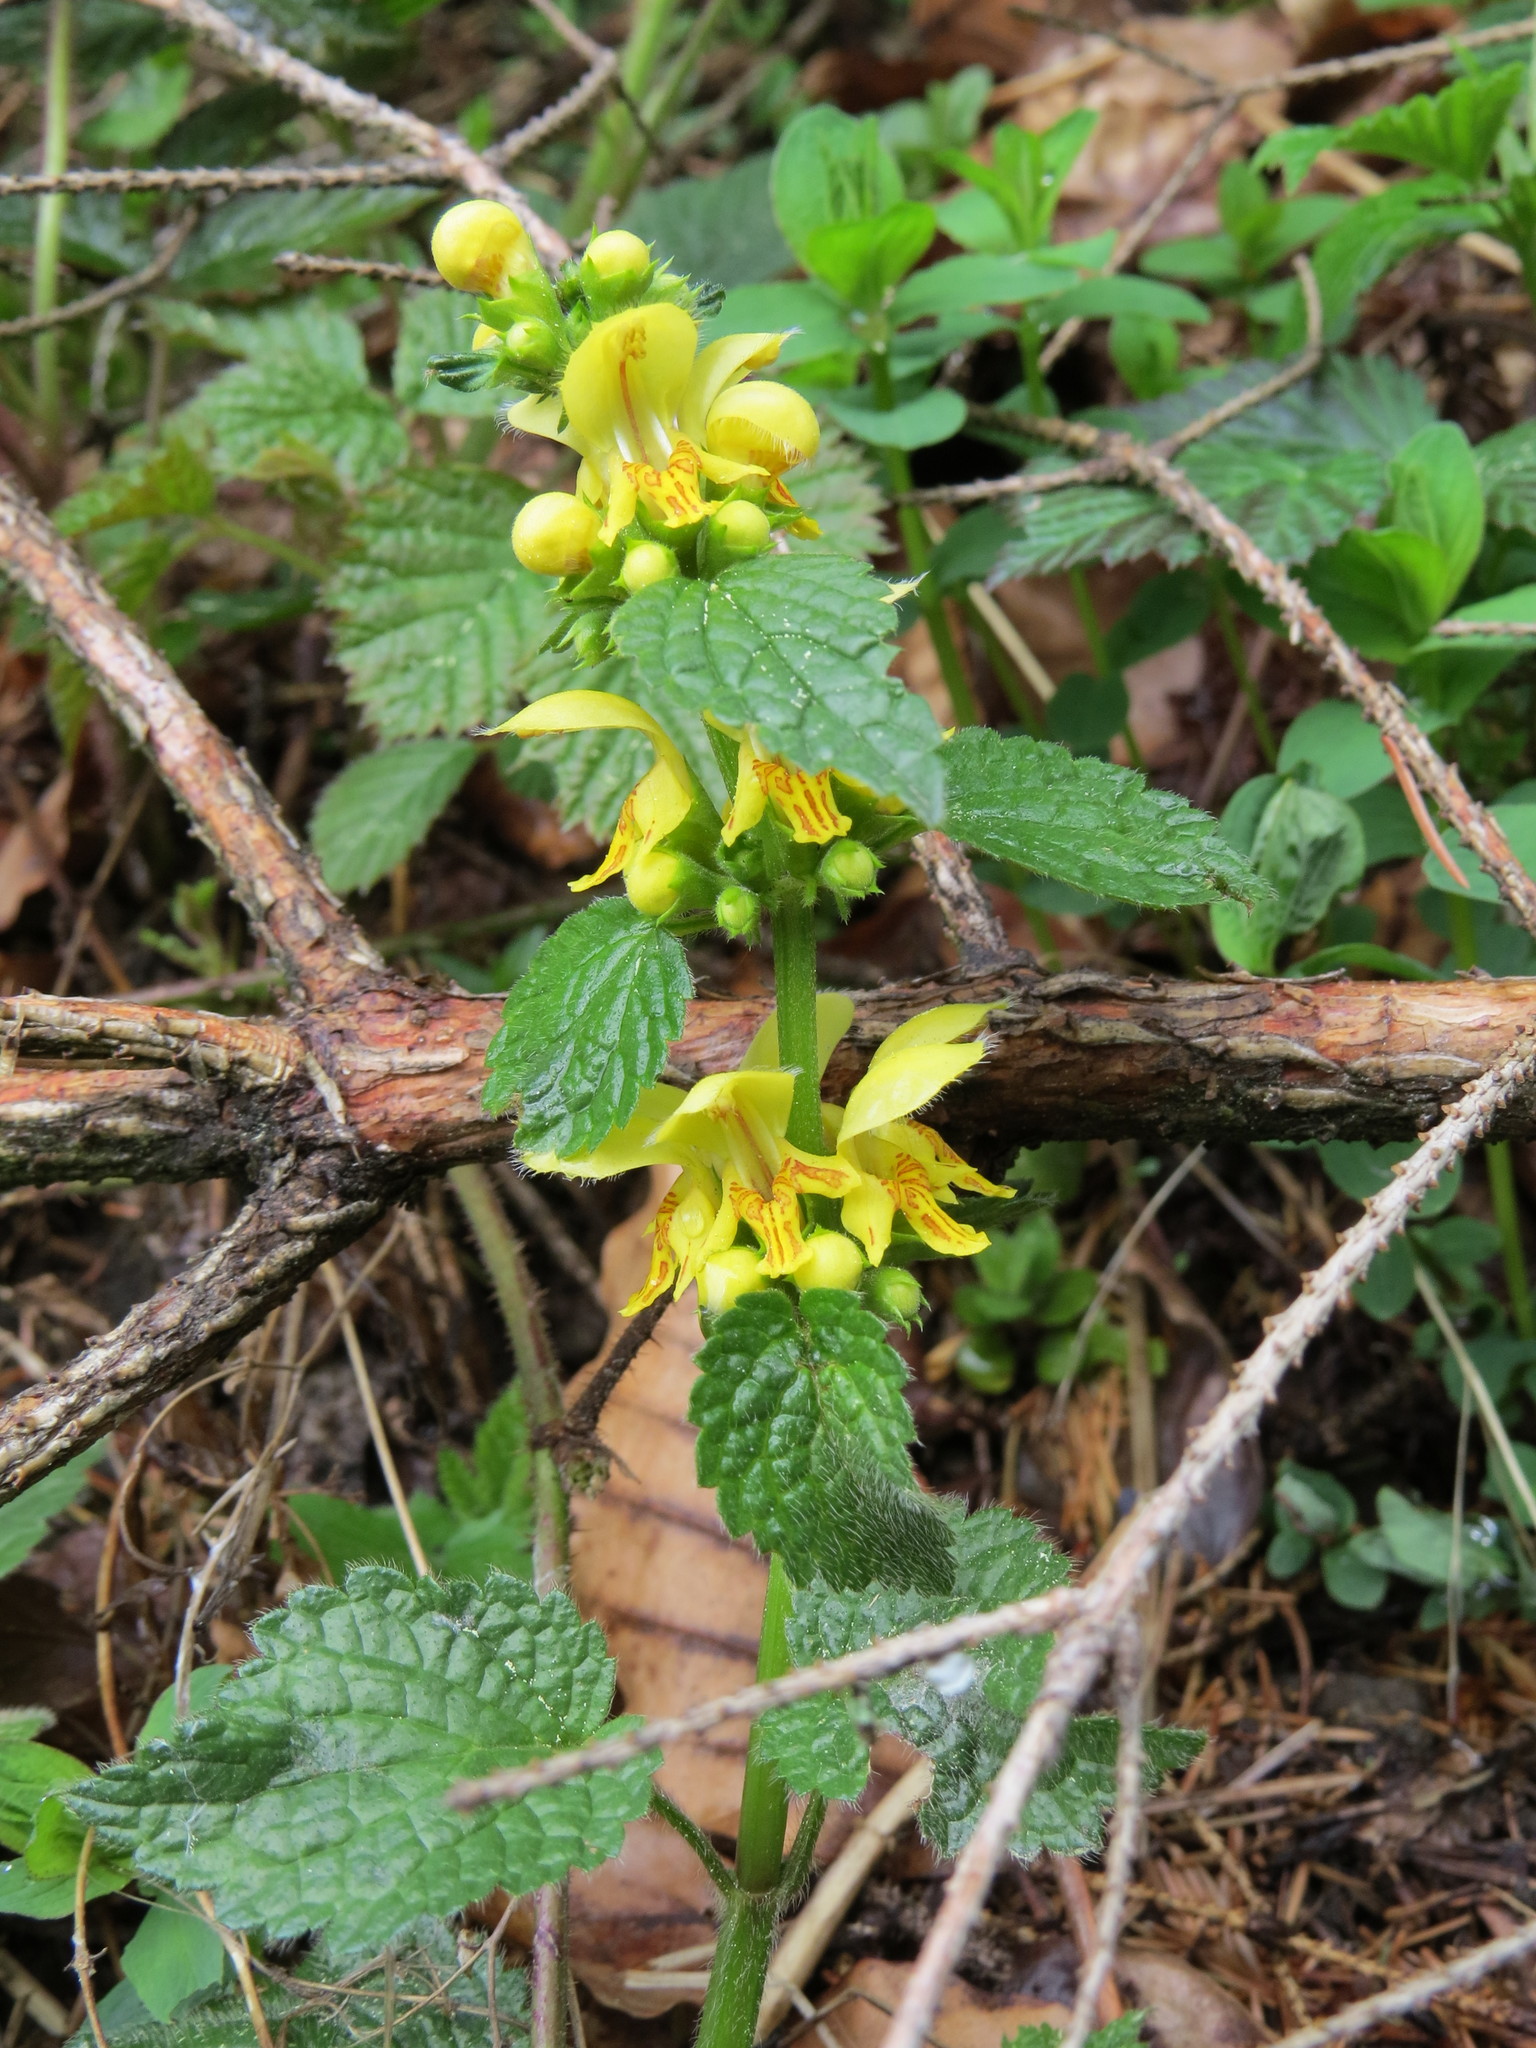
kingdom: Plantae
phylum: Tracheophyta
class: Magnoliopsida
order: Malpighiales
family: Euphorbiaceae
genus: Euphorbia
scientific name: Euphorbia amygdaloides
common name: Wood spurge
